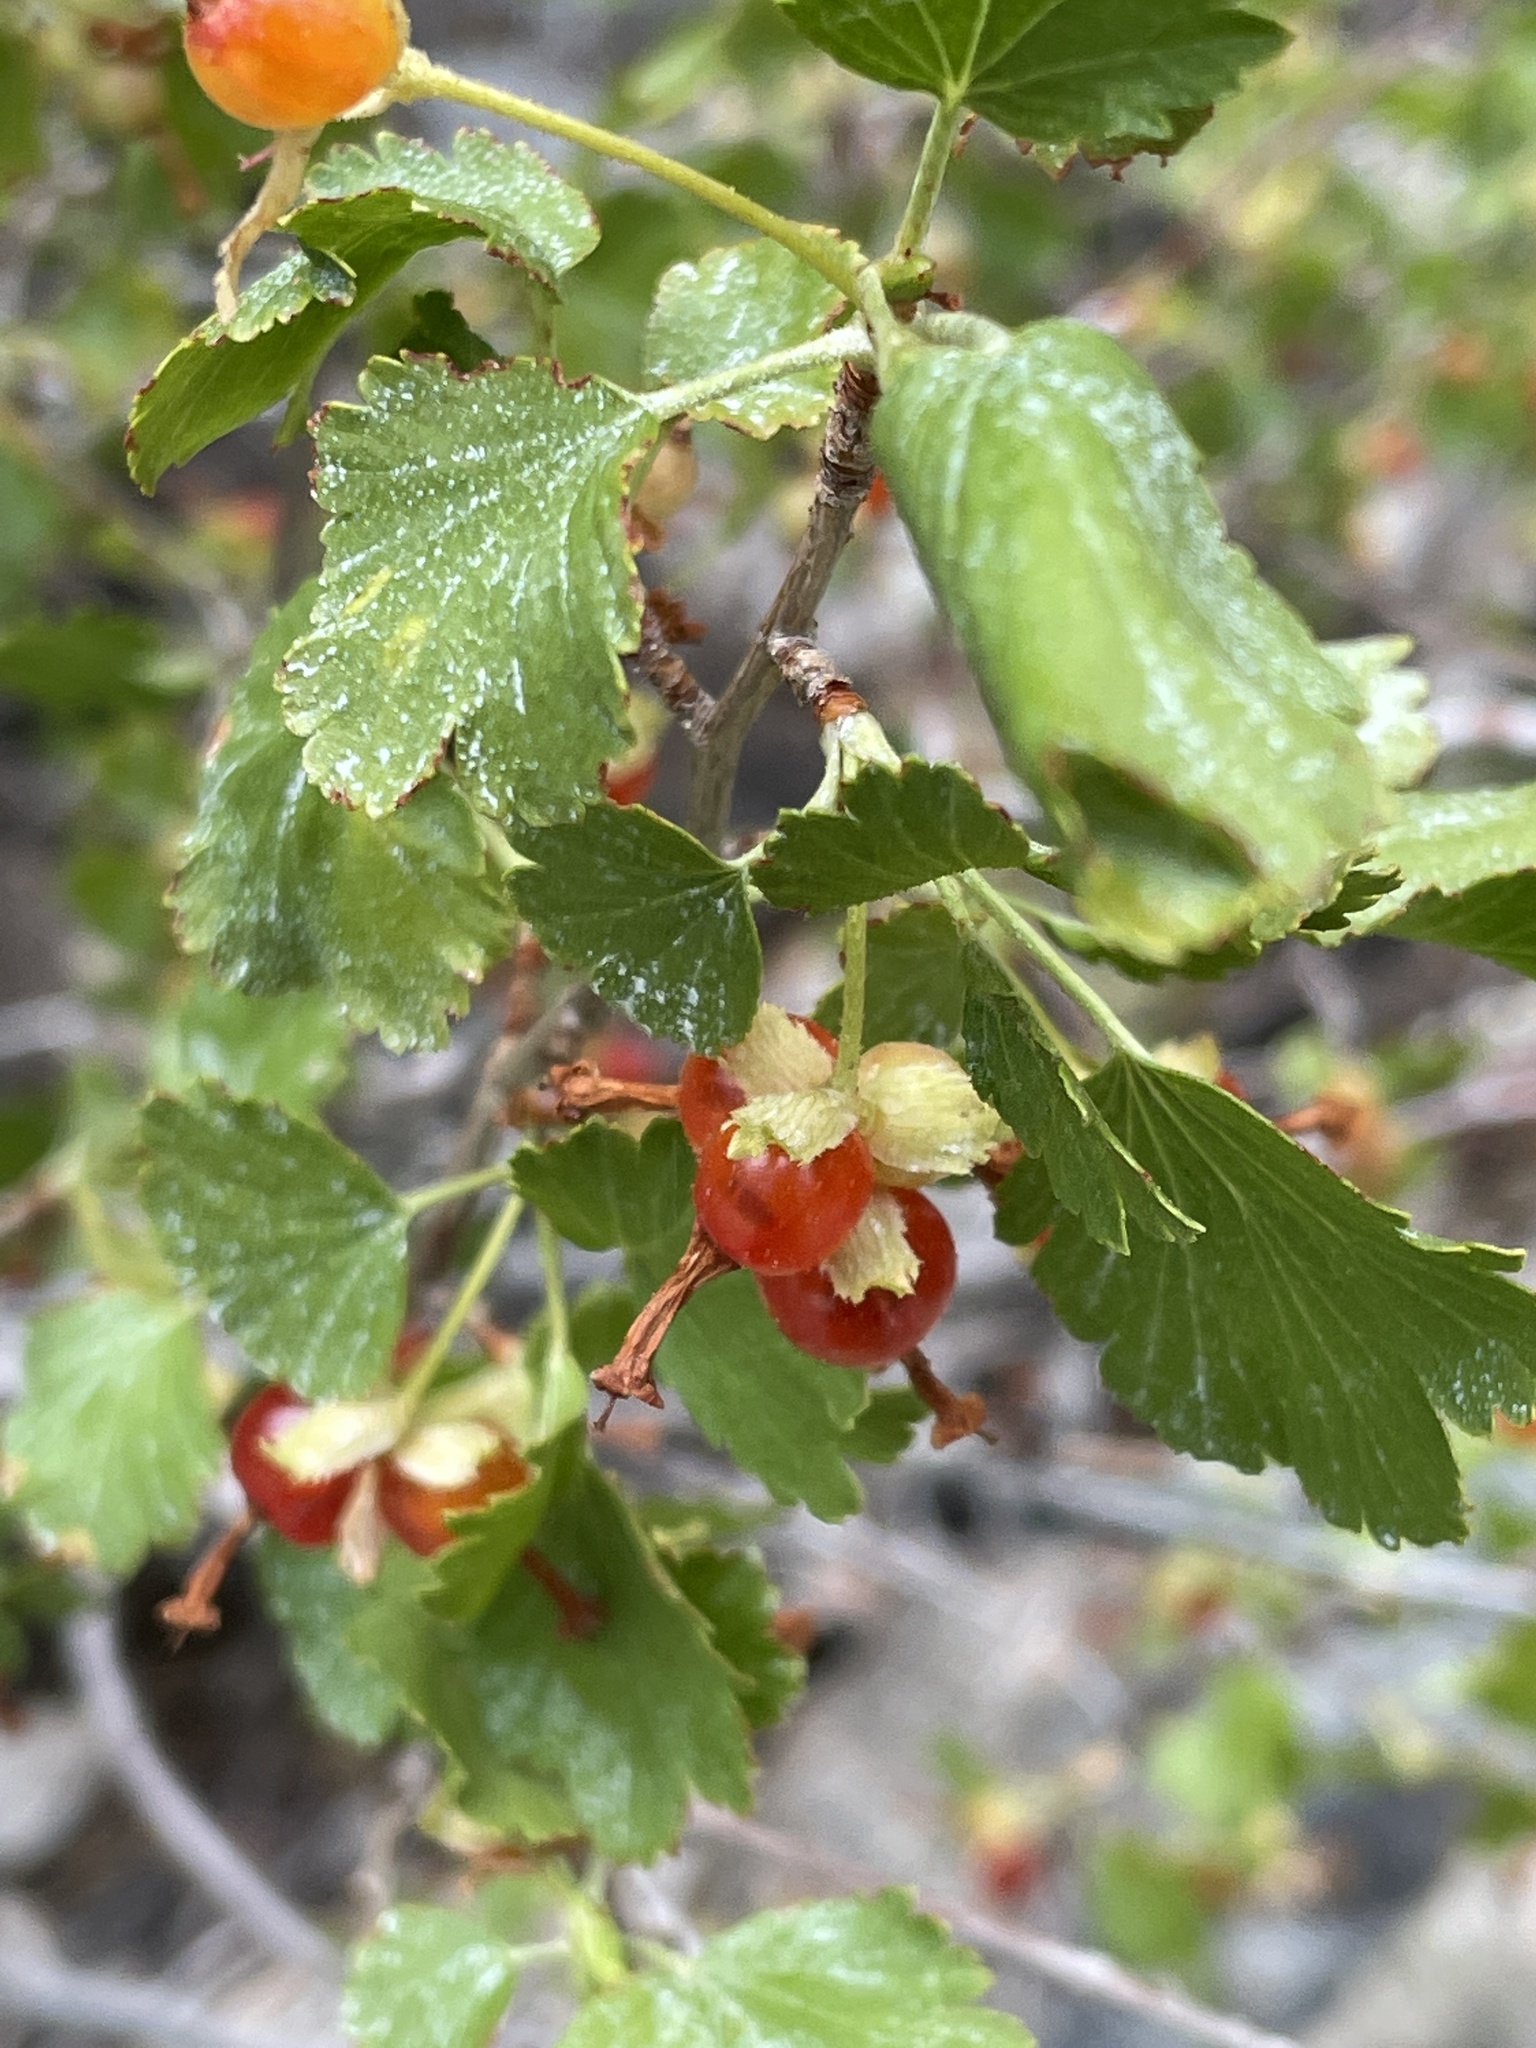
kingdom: Plantae
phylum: Tracheophyta
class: Magnoliopsida
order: Saxifragales
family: Grossulariaceae
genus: Ribes
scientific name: Ribes cereum
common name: Wax currant
